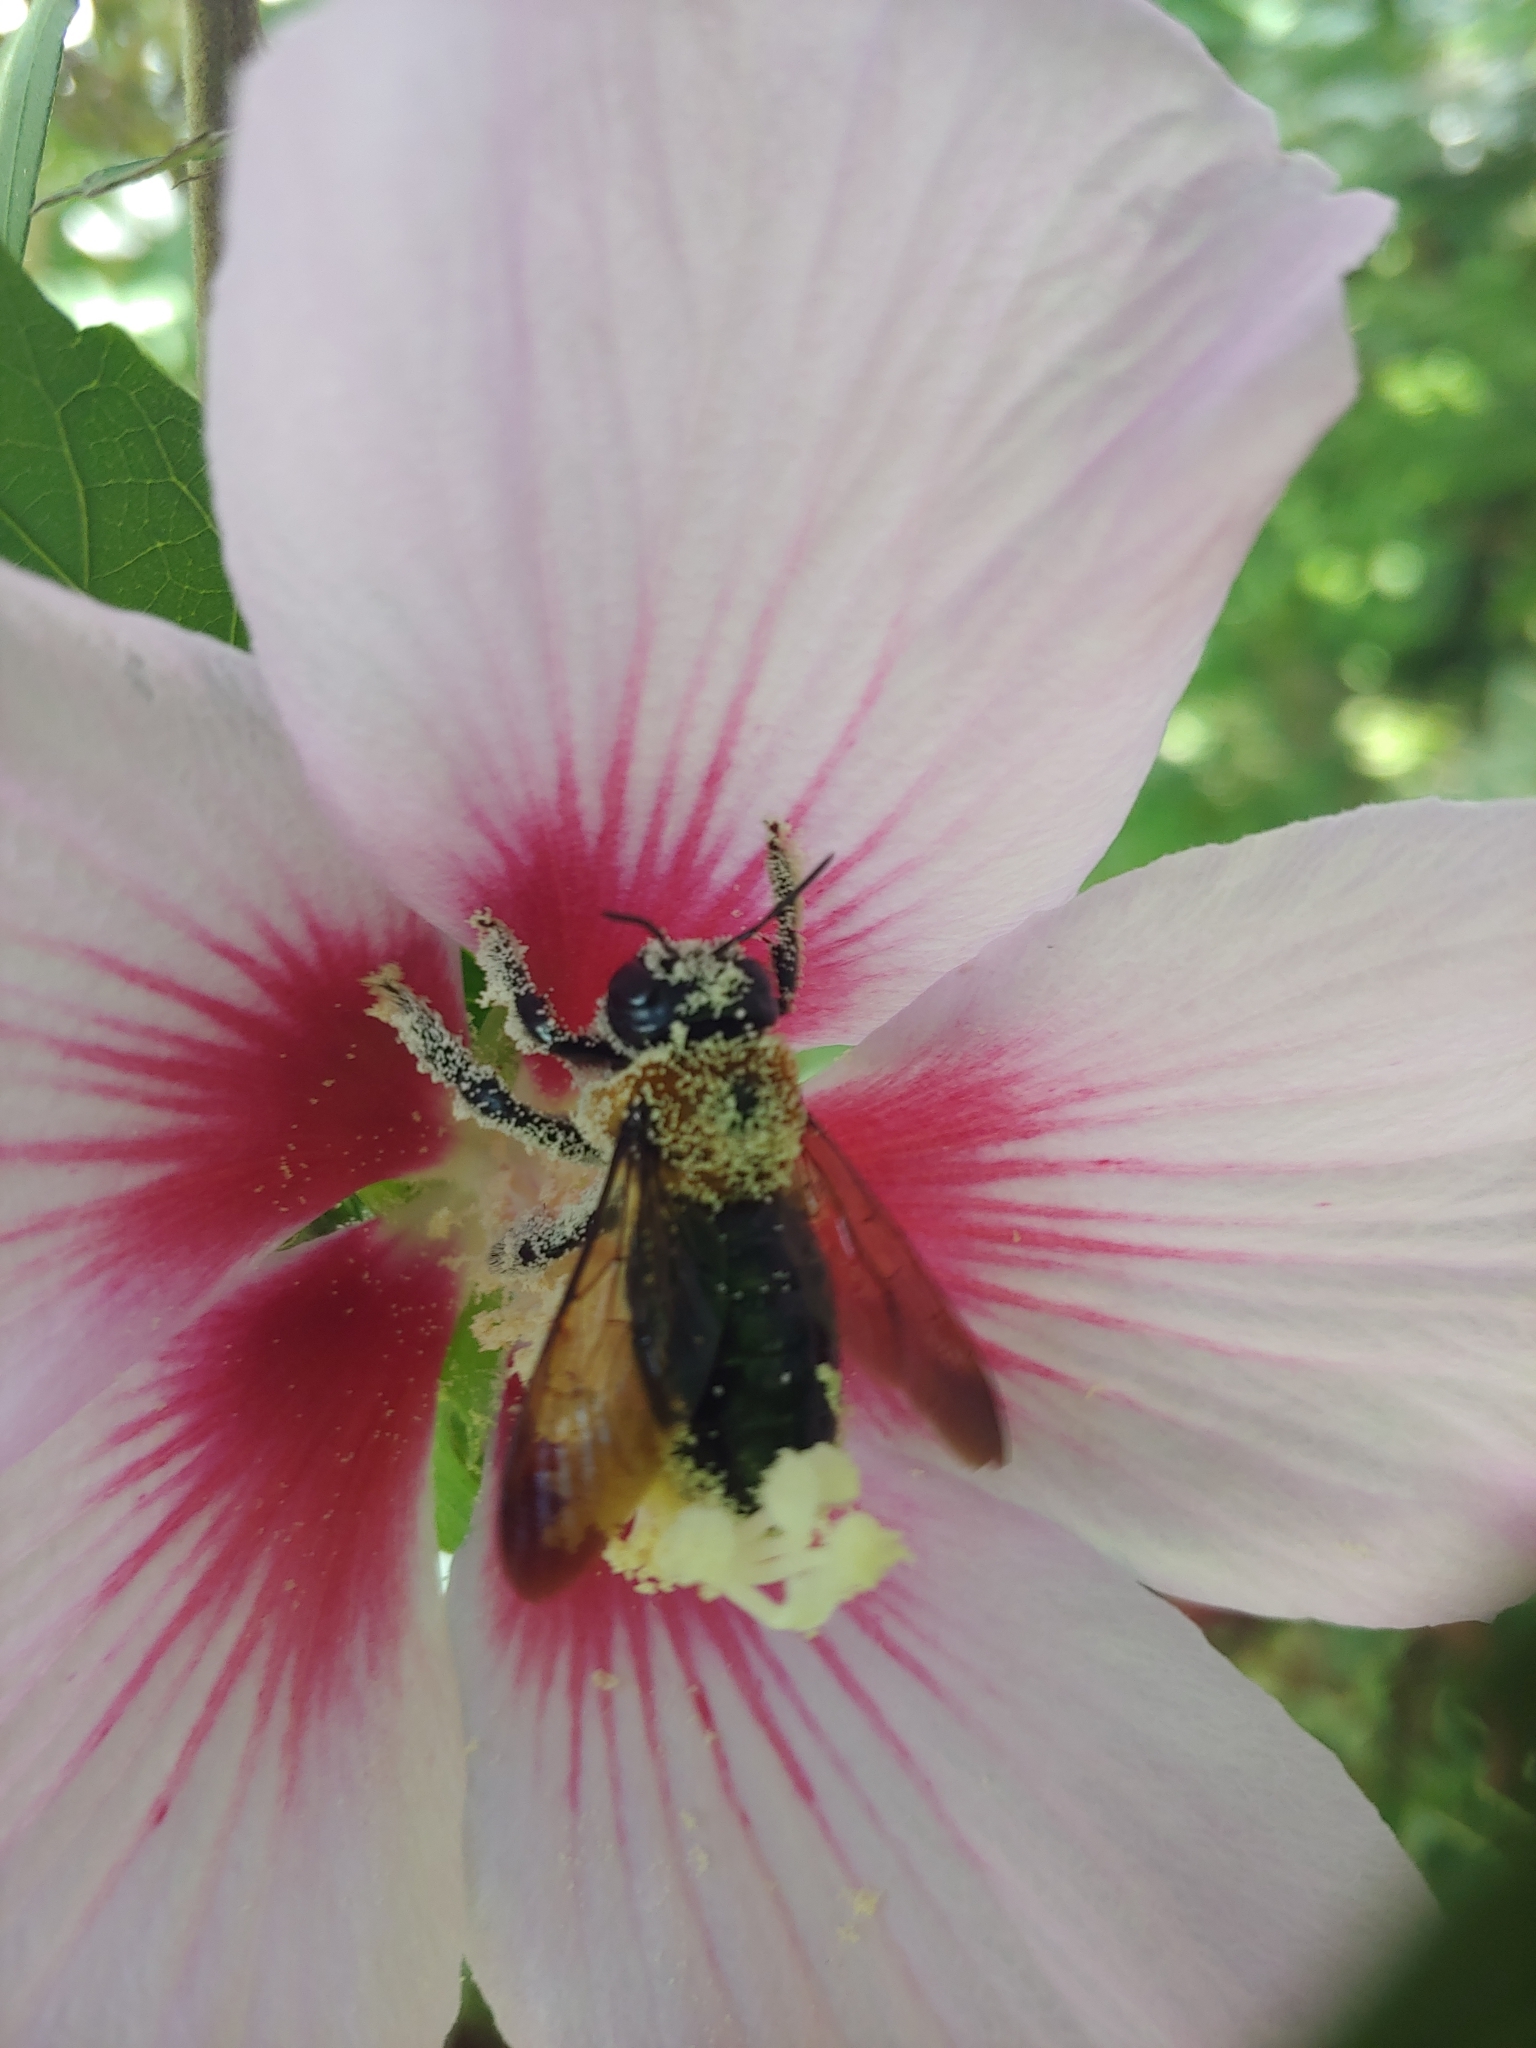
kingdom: Animalia
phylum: Arthropoda
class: Insecta
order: Hymenoptera
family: Apidae
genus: Xylocopa
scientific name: Xylocopa virginica
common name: Carpenter bee
